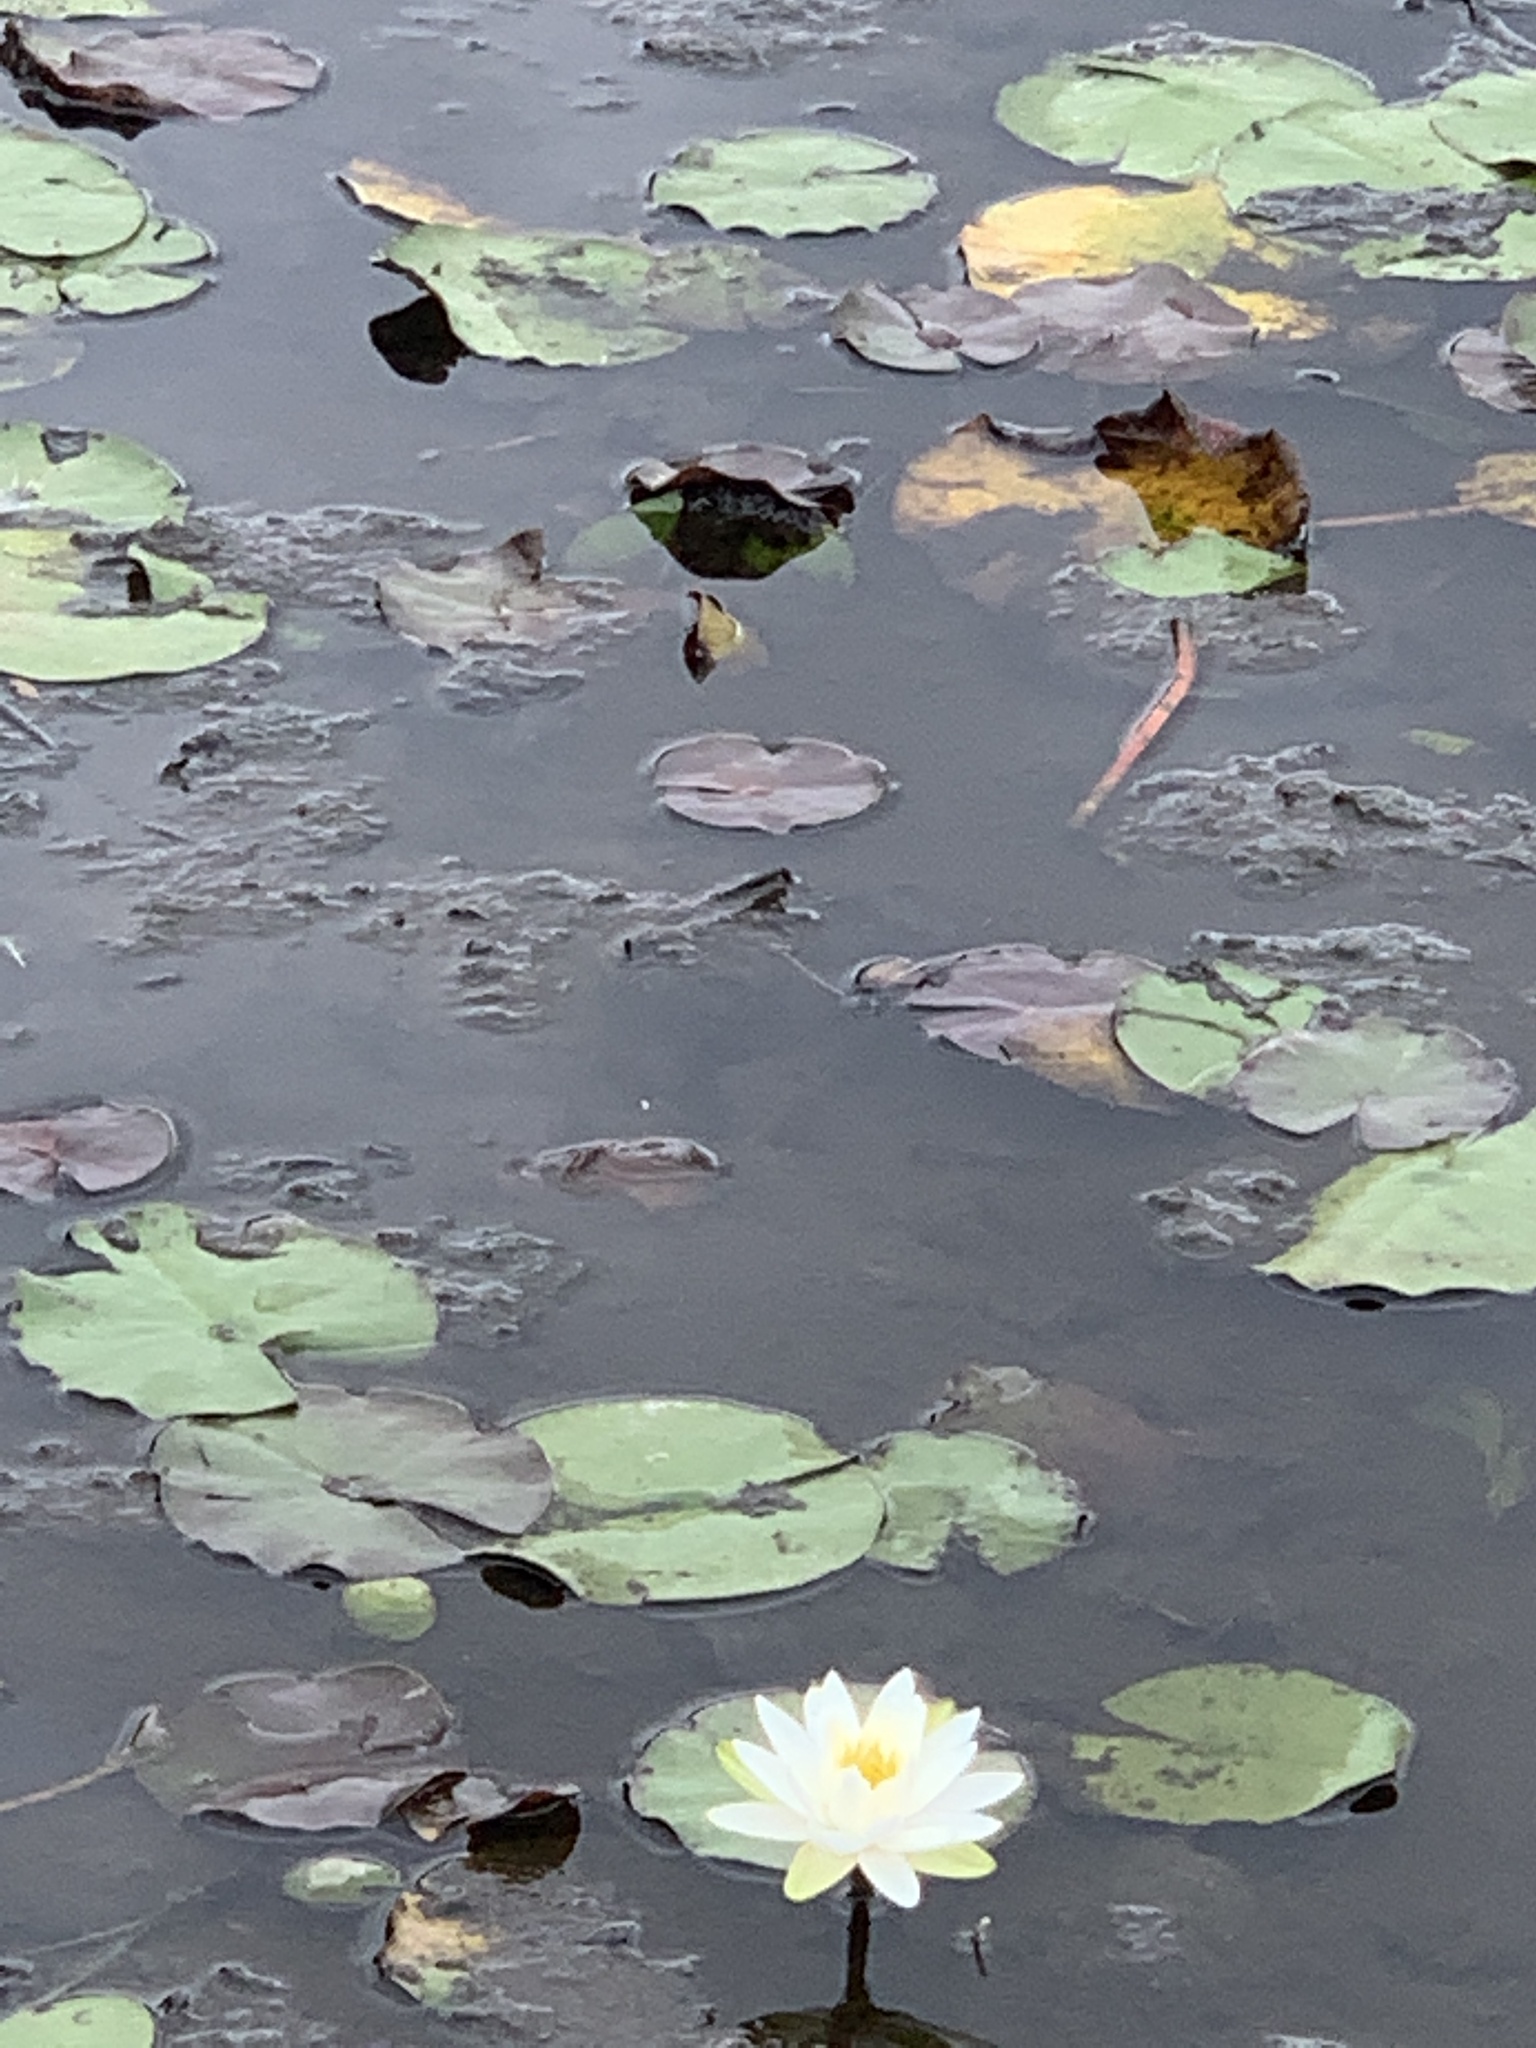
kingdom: Plantae
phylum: Tracheophyta
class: Magnoliopsida
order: Nymphaeales
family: Nymphaeaceae
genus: Nymphaea
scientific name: Nymphaea odorata
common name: Fragrant water-lily
